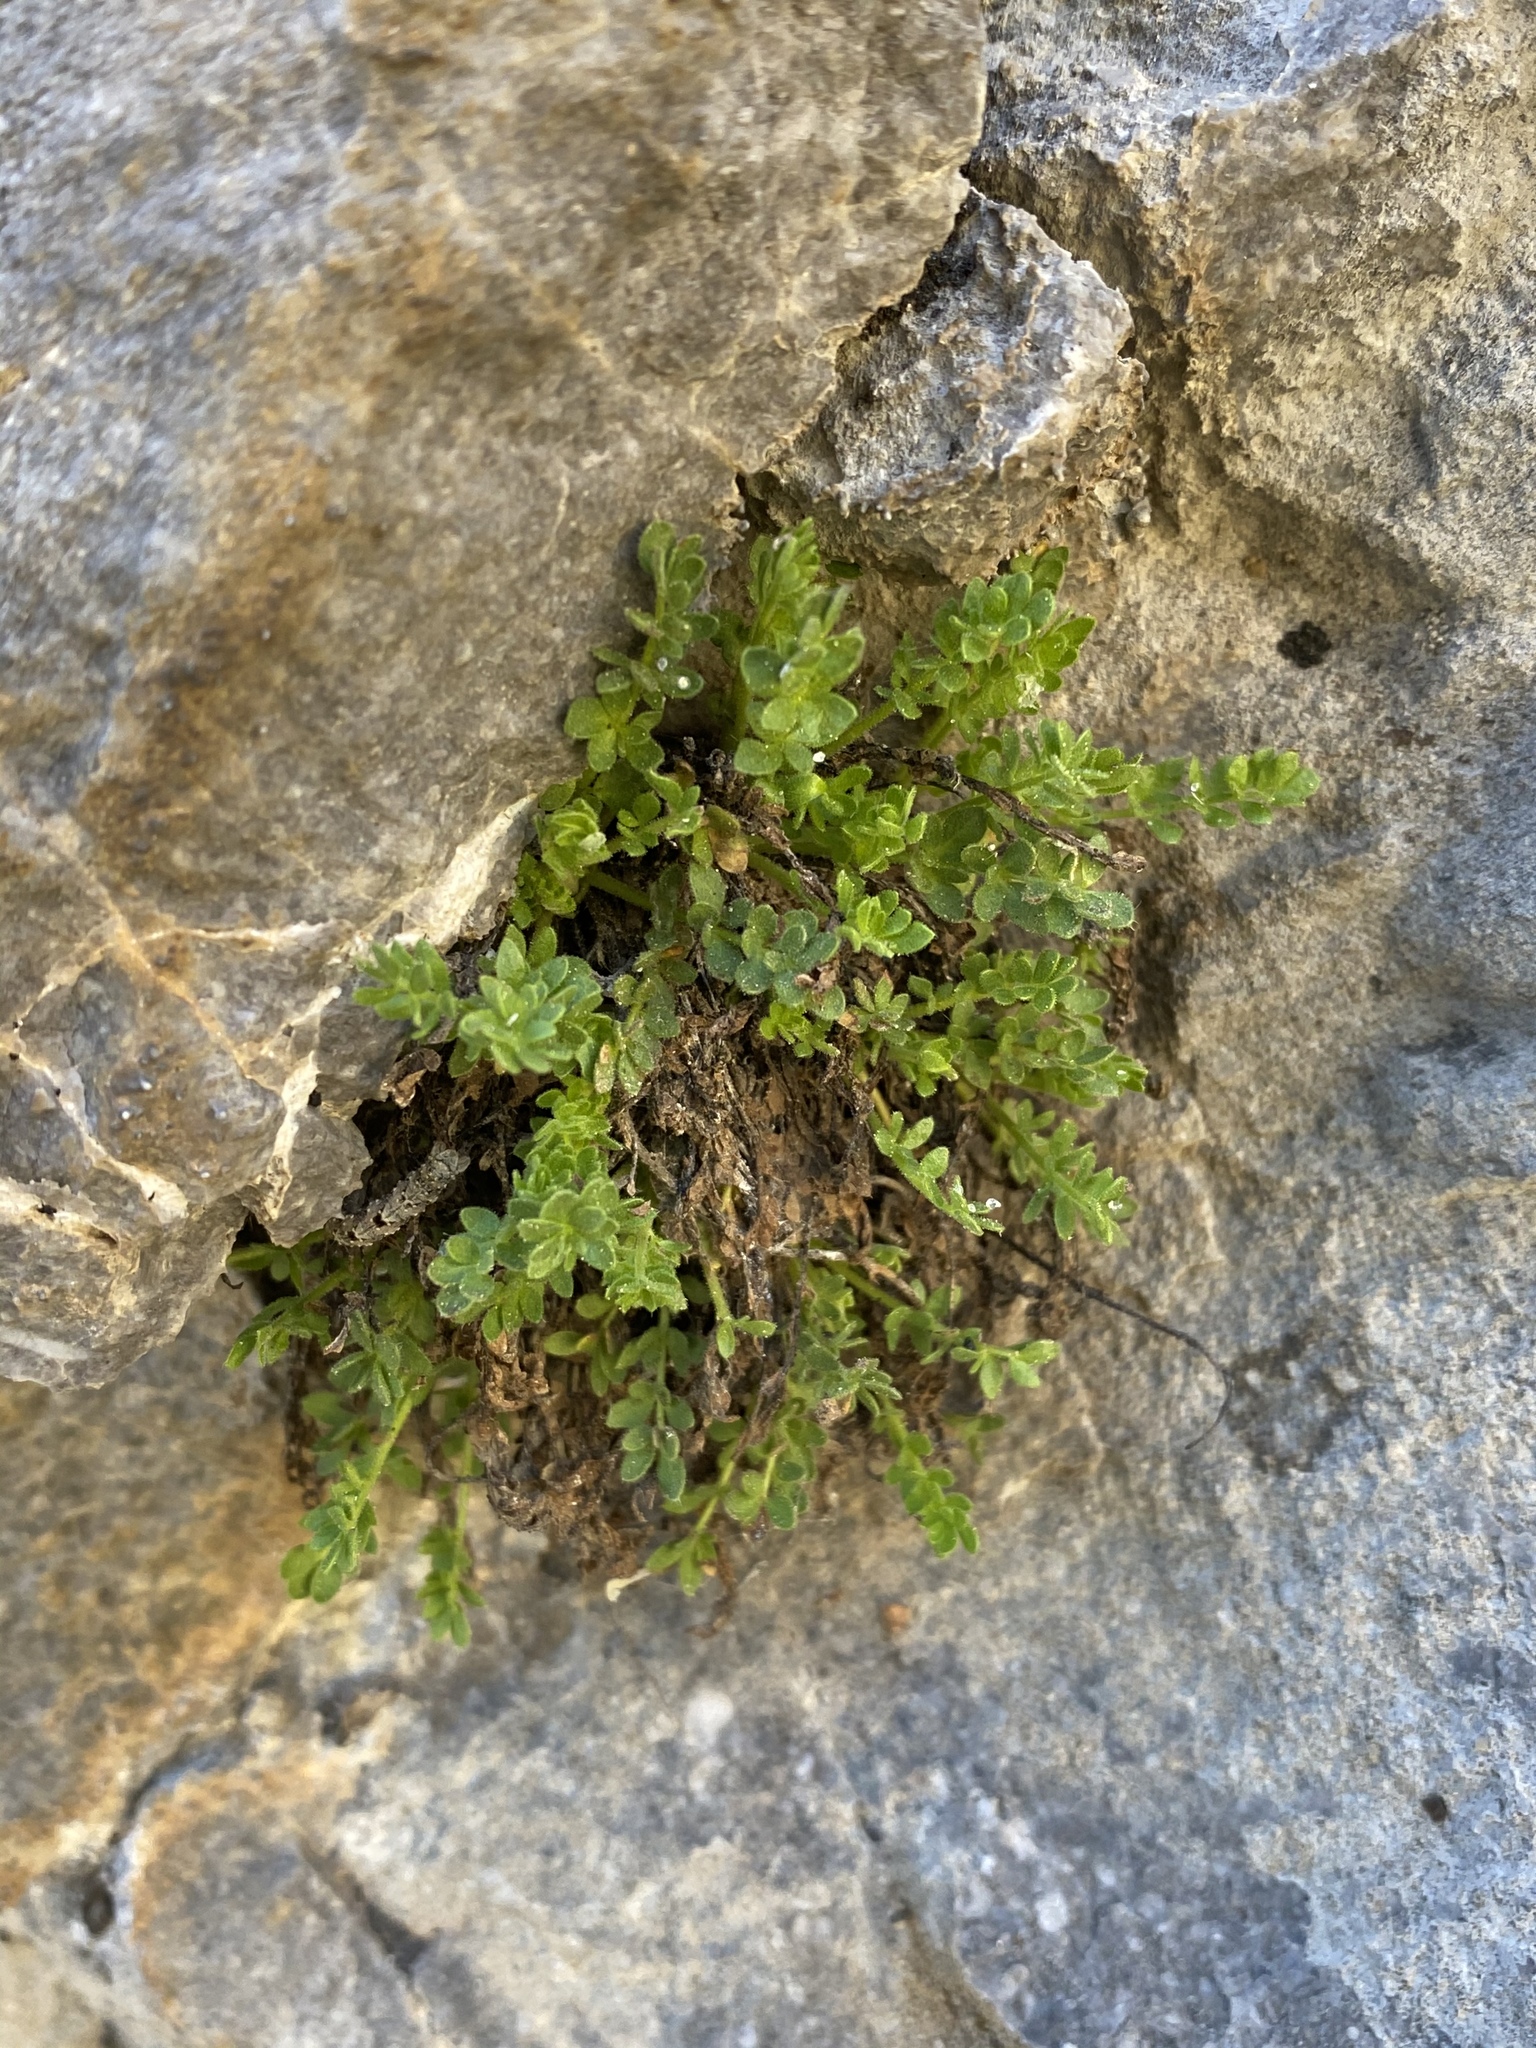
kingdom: Plantae
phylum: Tracheophyta
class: Magnoliopsida
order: Rosales
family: Rosaceae
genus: Potentilla
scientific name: Potentilla jaegeri
